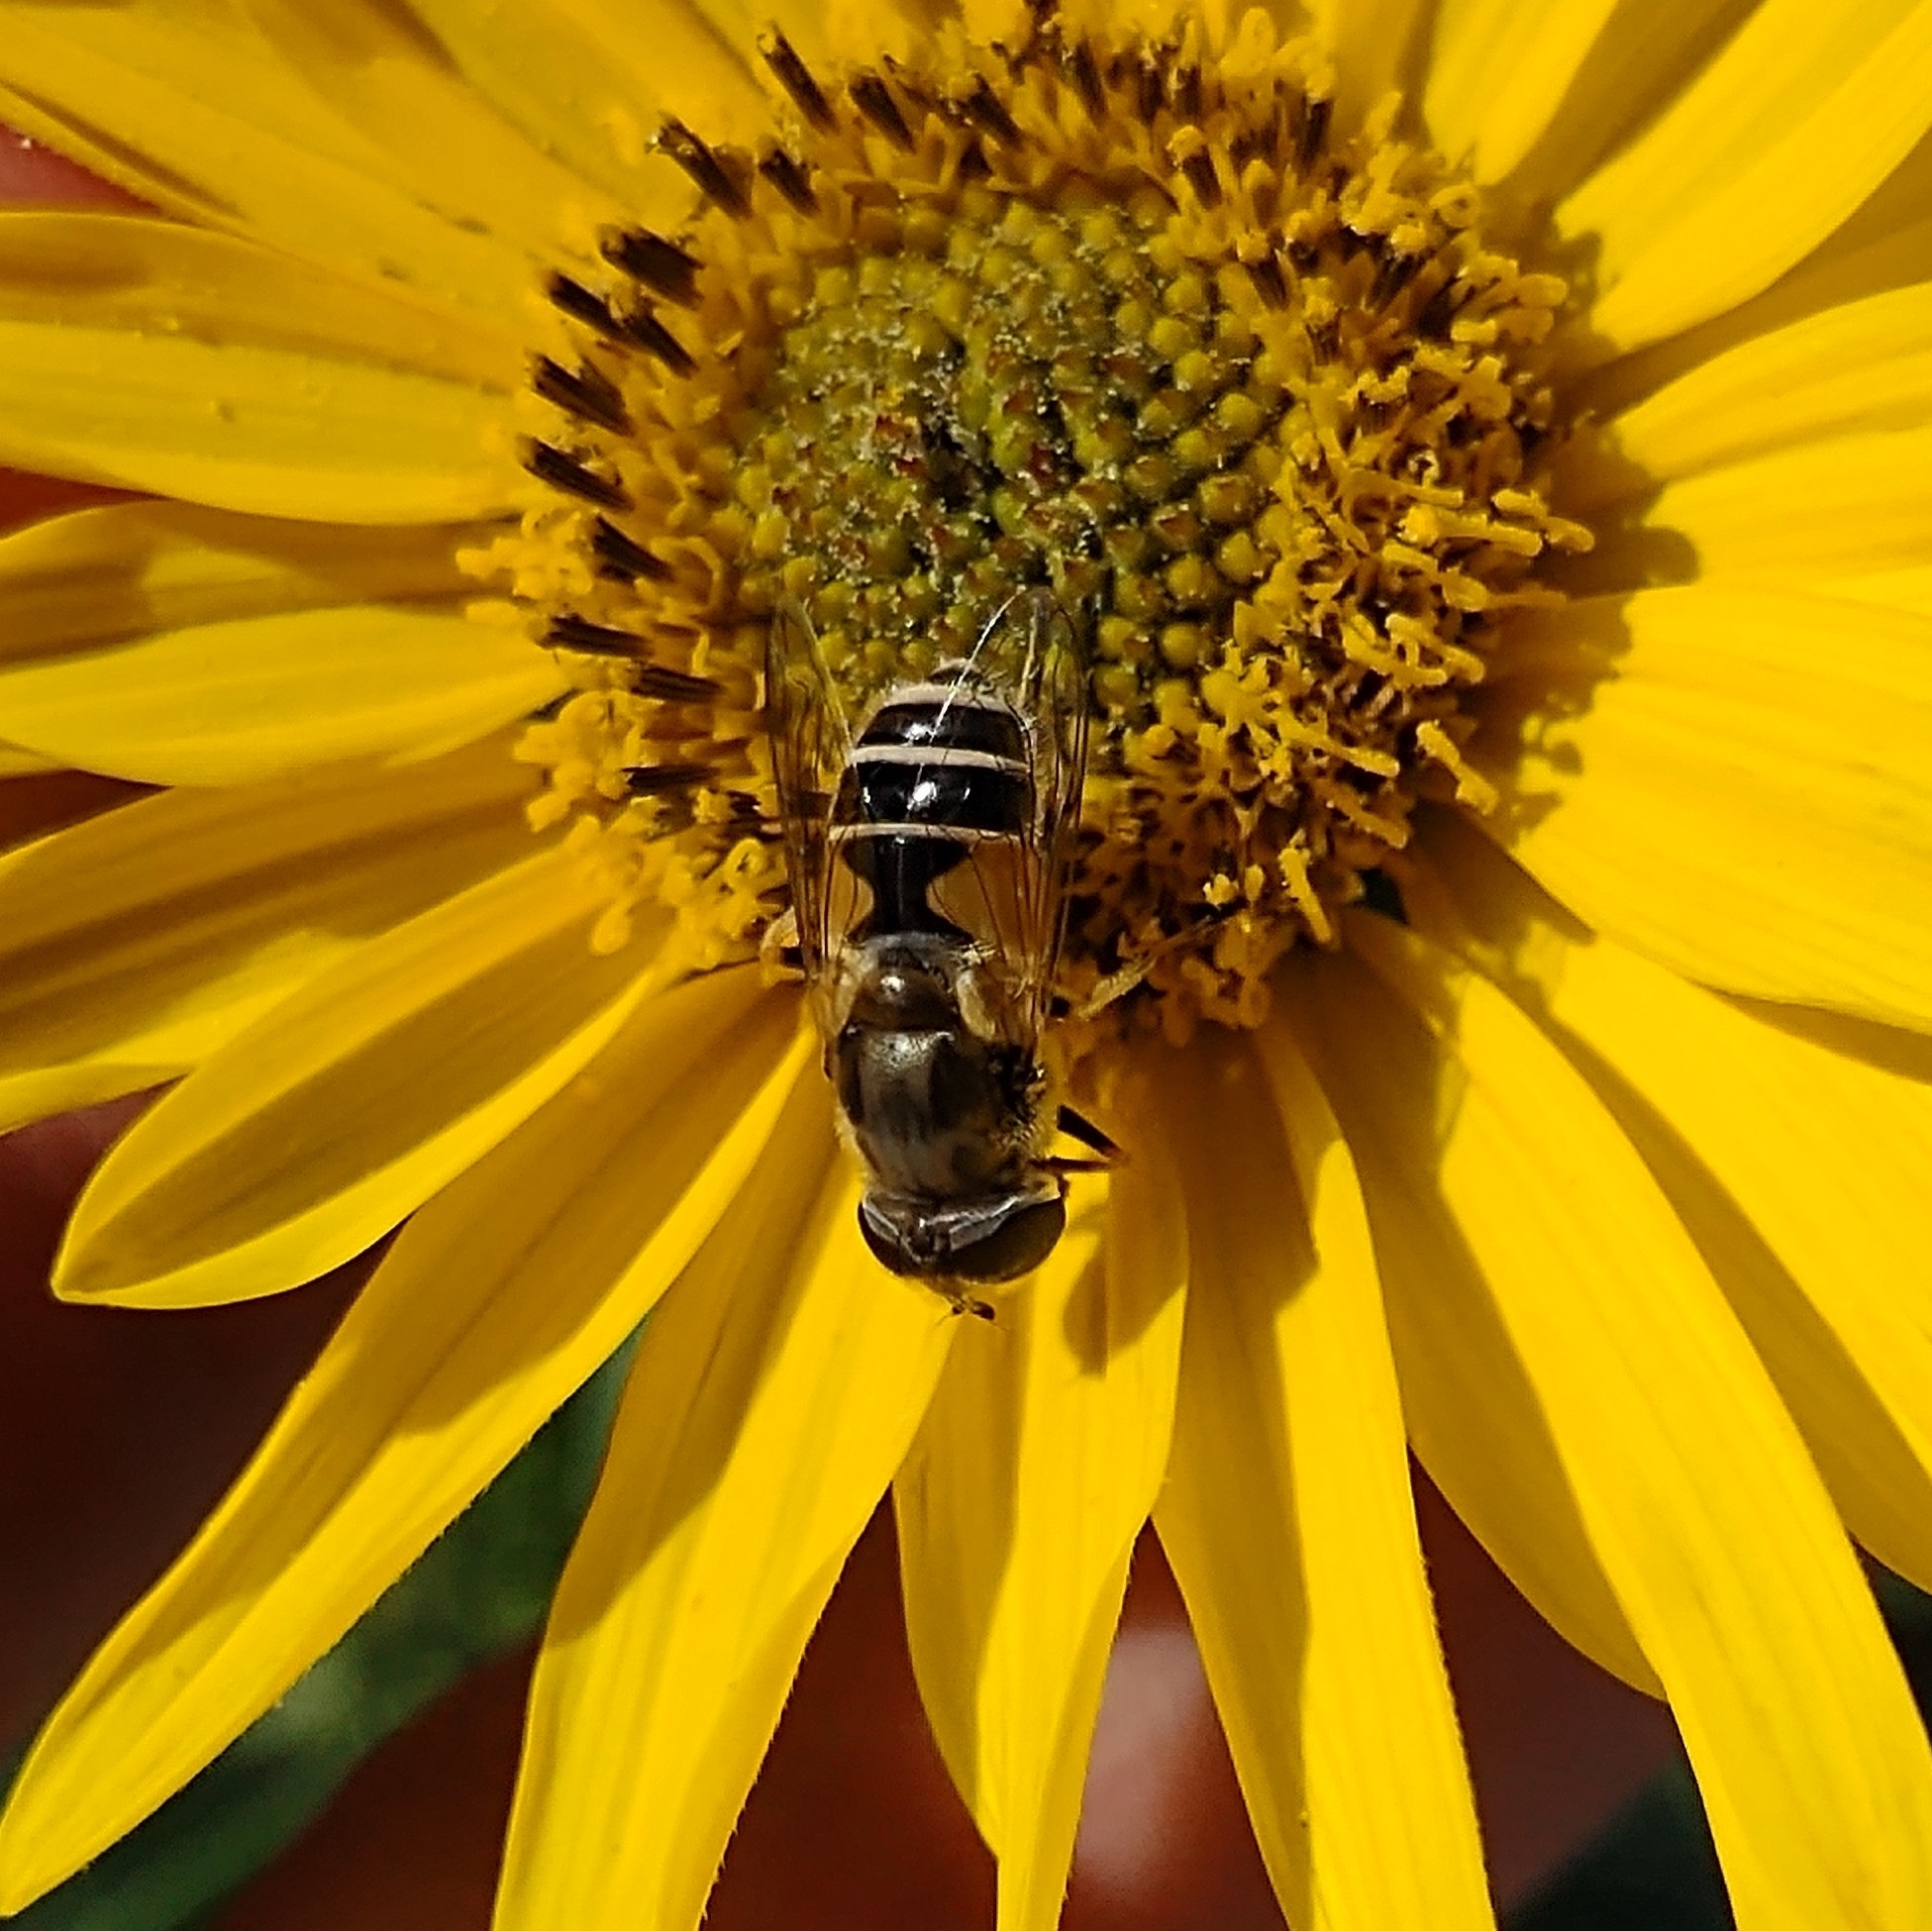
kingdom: Animalia
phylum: Arthropoda
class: Insecta
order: Diptera
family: Syrphidae
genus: Eristalis
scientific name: Eristalis arbustorum
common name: Hover fly
